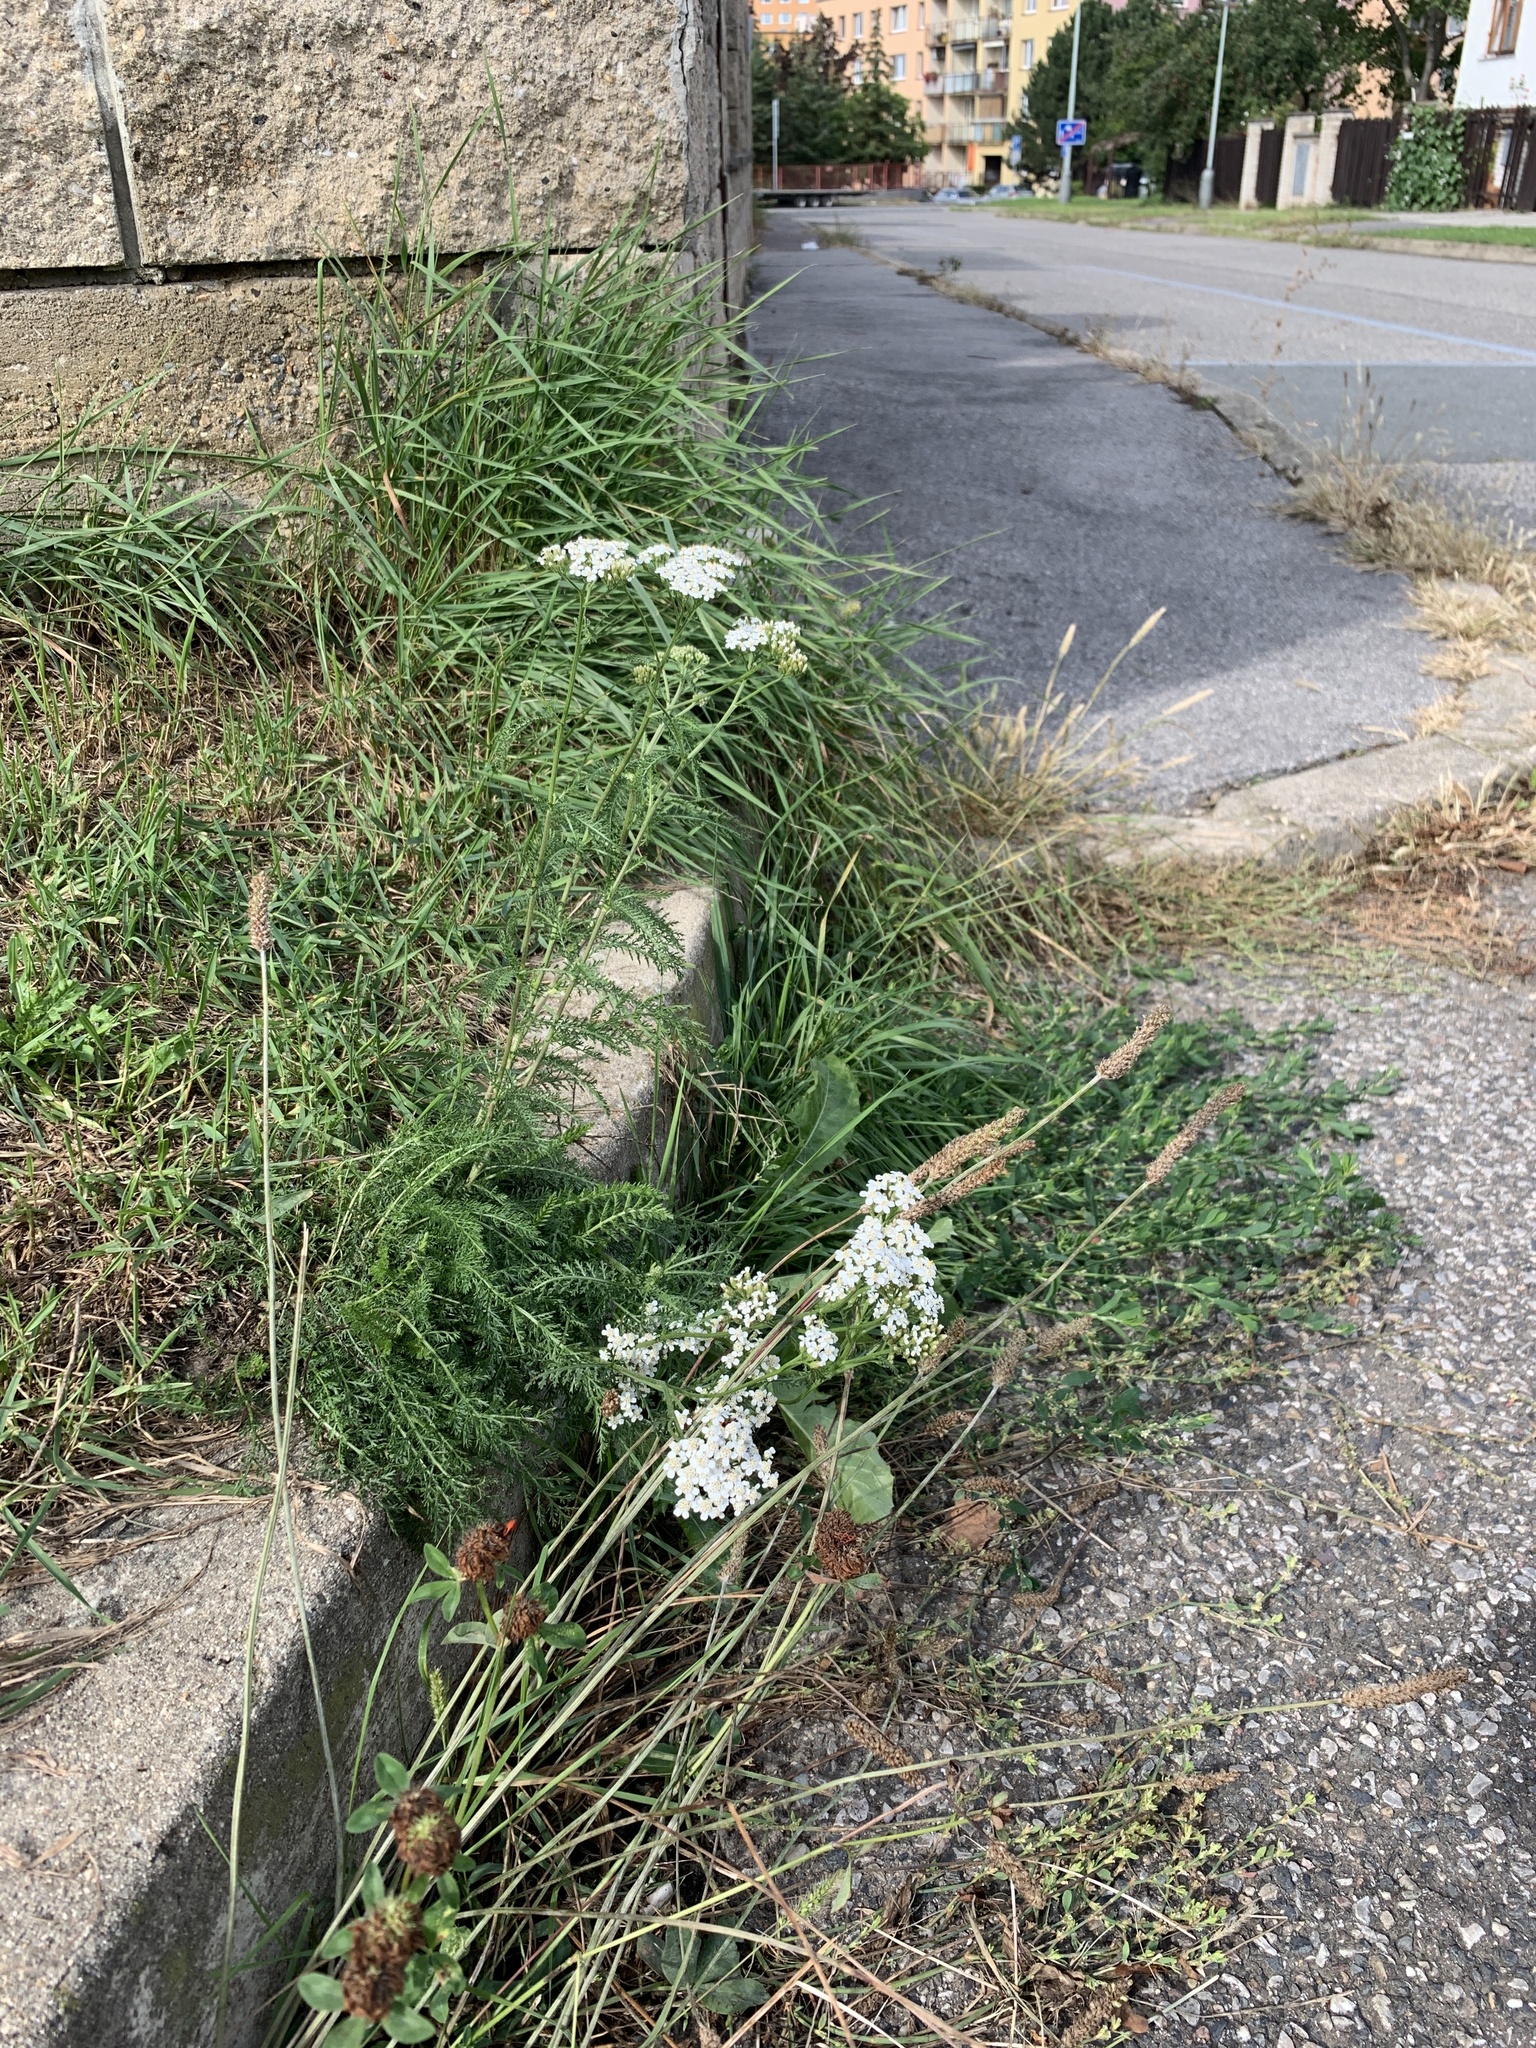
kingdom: Plantae
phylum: Tracheophyta
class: Magnoliopsida
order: Asterales
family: Asteraceae
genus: Achillea
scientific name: Achillea millefolium
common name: Yarrow
